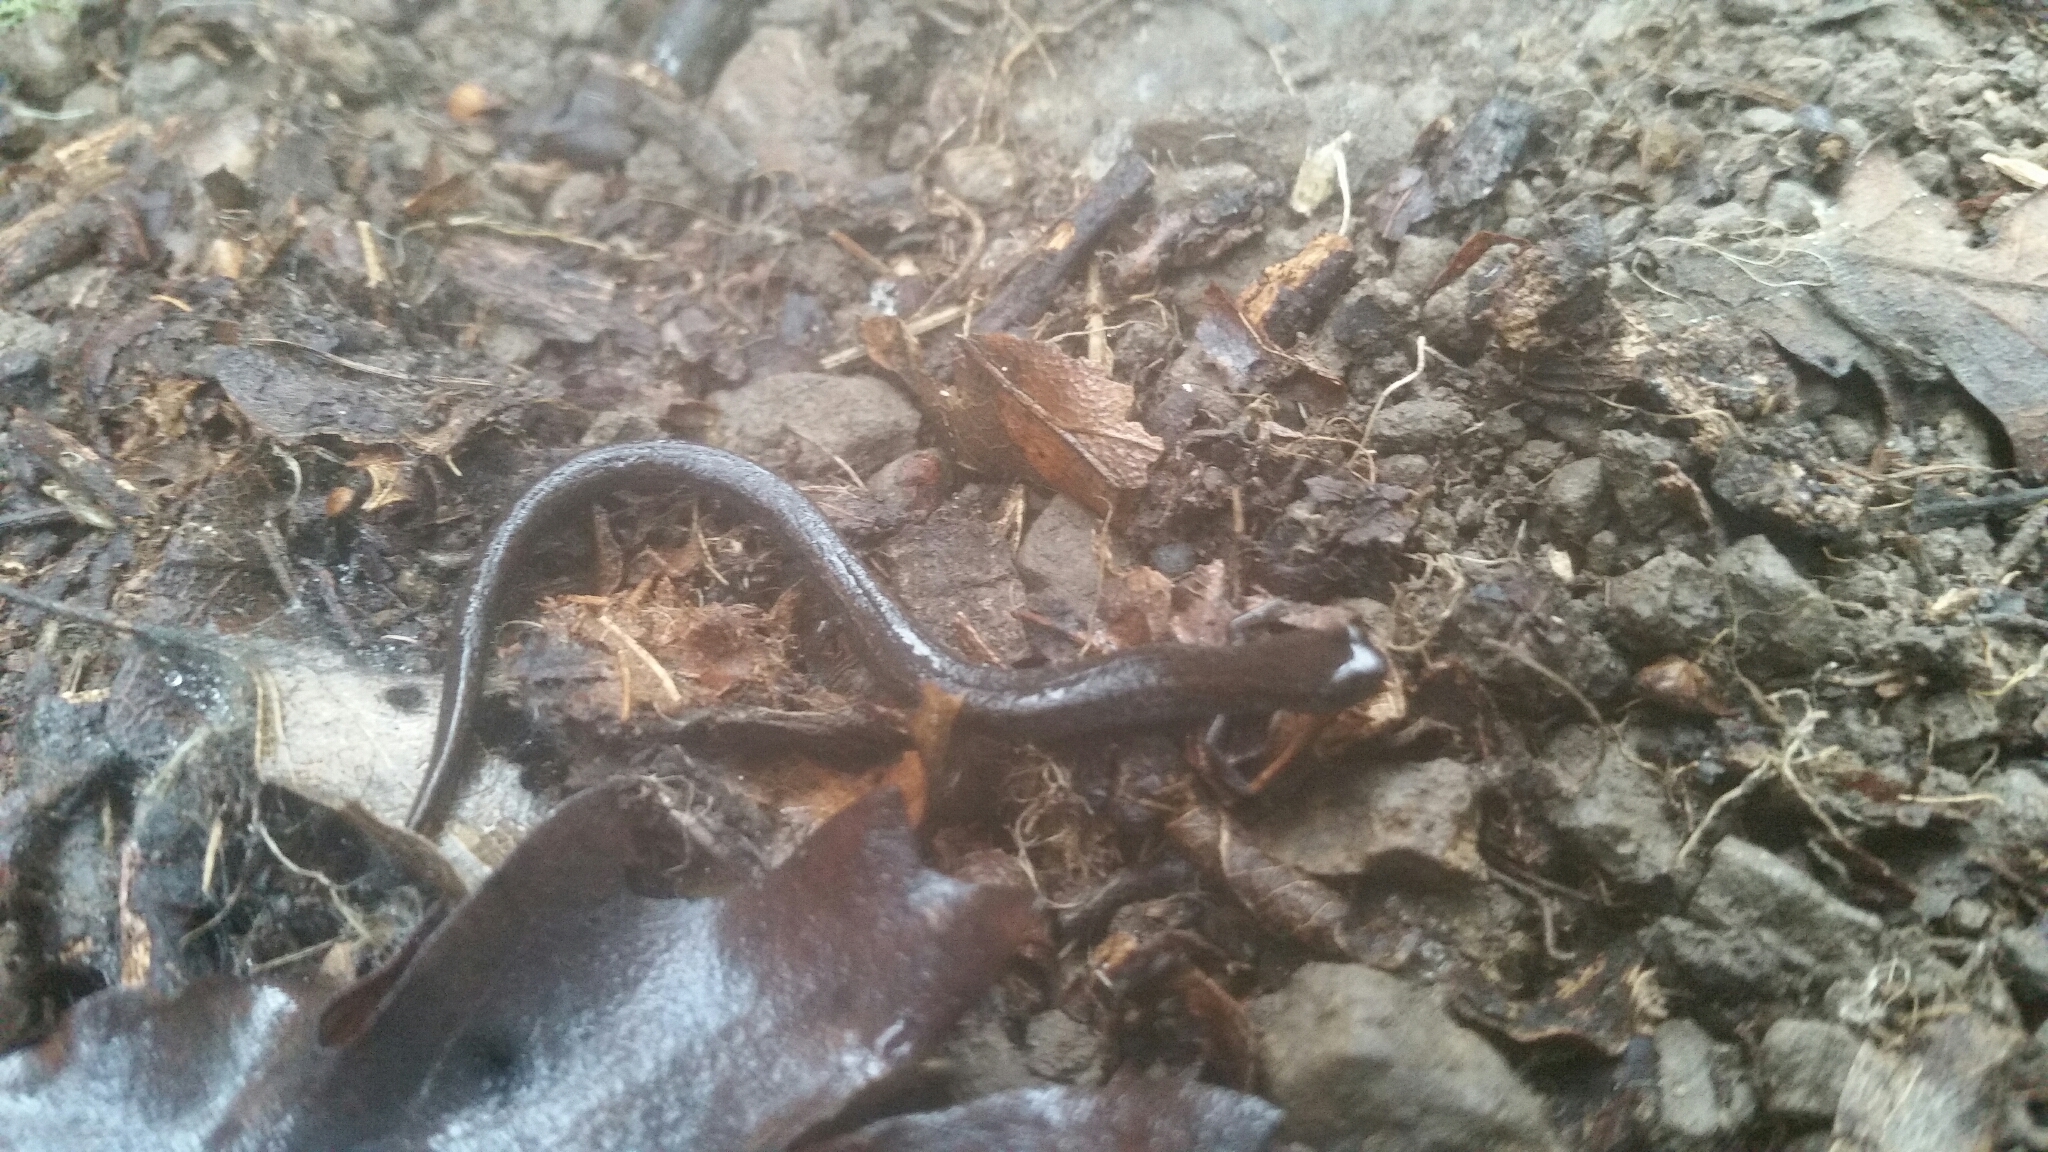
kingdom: Animalia
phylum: Chordata
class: Amphibia
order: Caudata
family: Plethodontidae
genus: Batrachoseps
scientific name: Batrachoseps attenuatus
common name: California slender salamander
